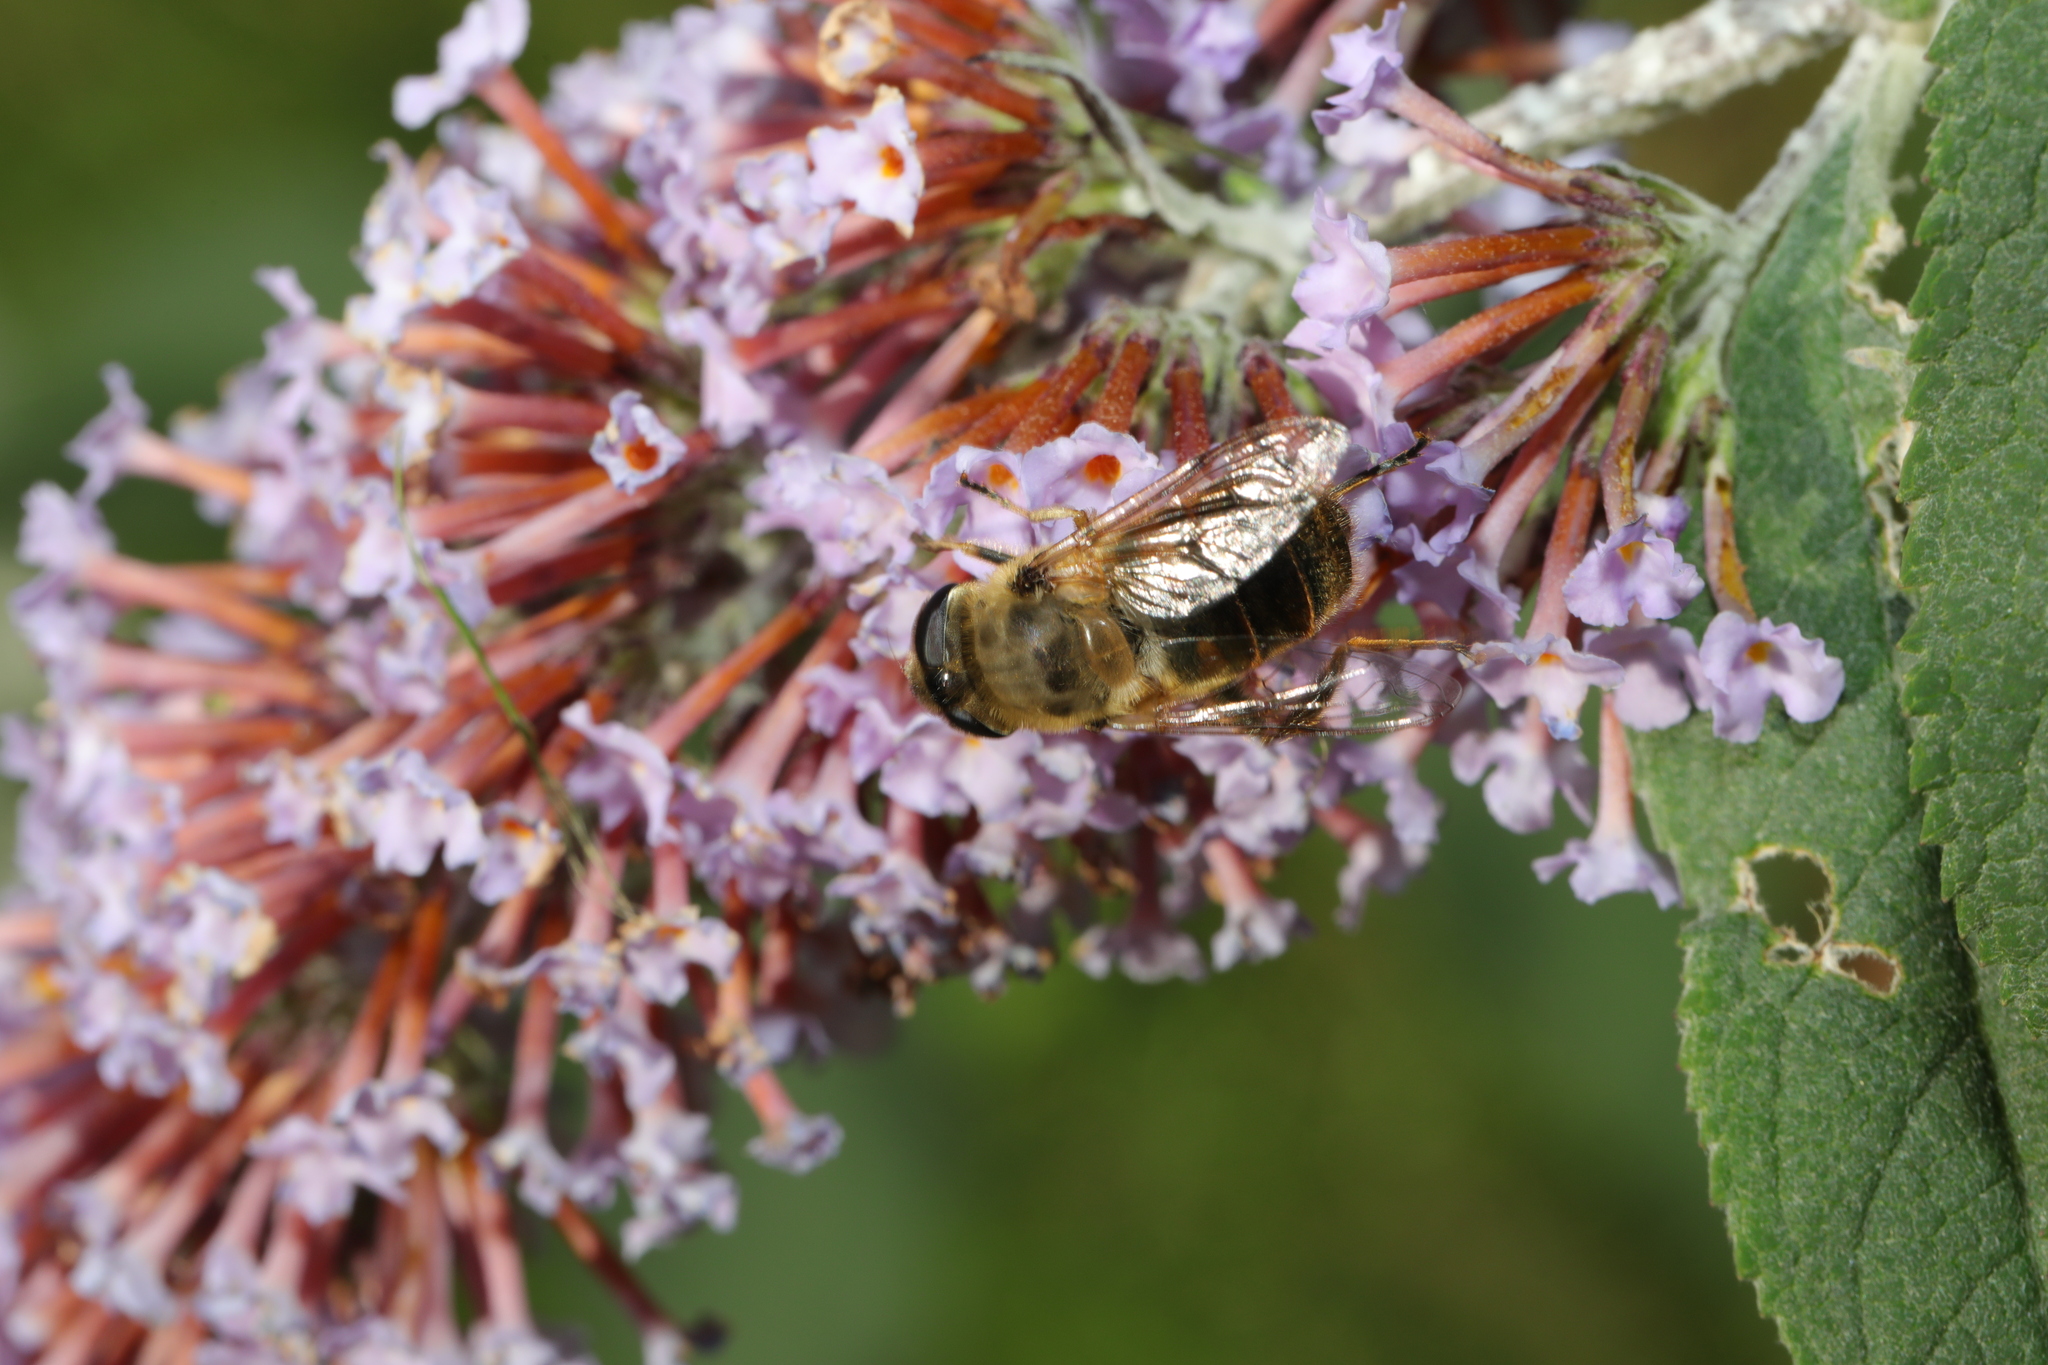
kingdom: Animalia
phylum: Arthropoda
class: Insecta
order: Diptera
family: Syrphidae
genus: Eristalis
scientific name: Eristalis tenax
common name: Drone fly
